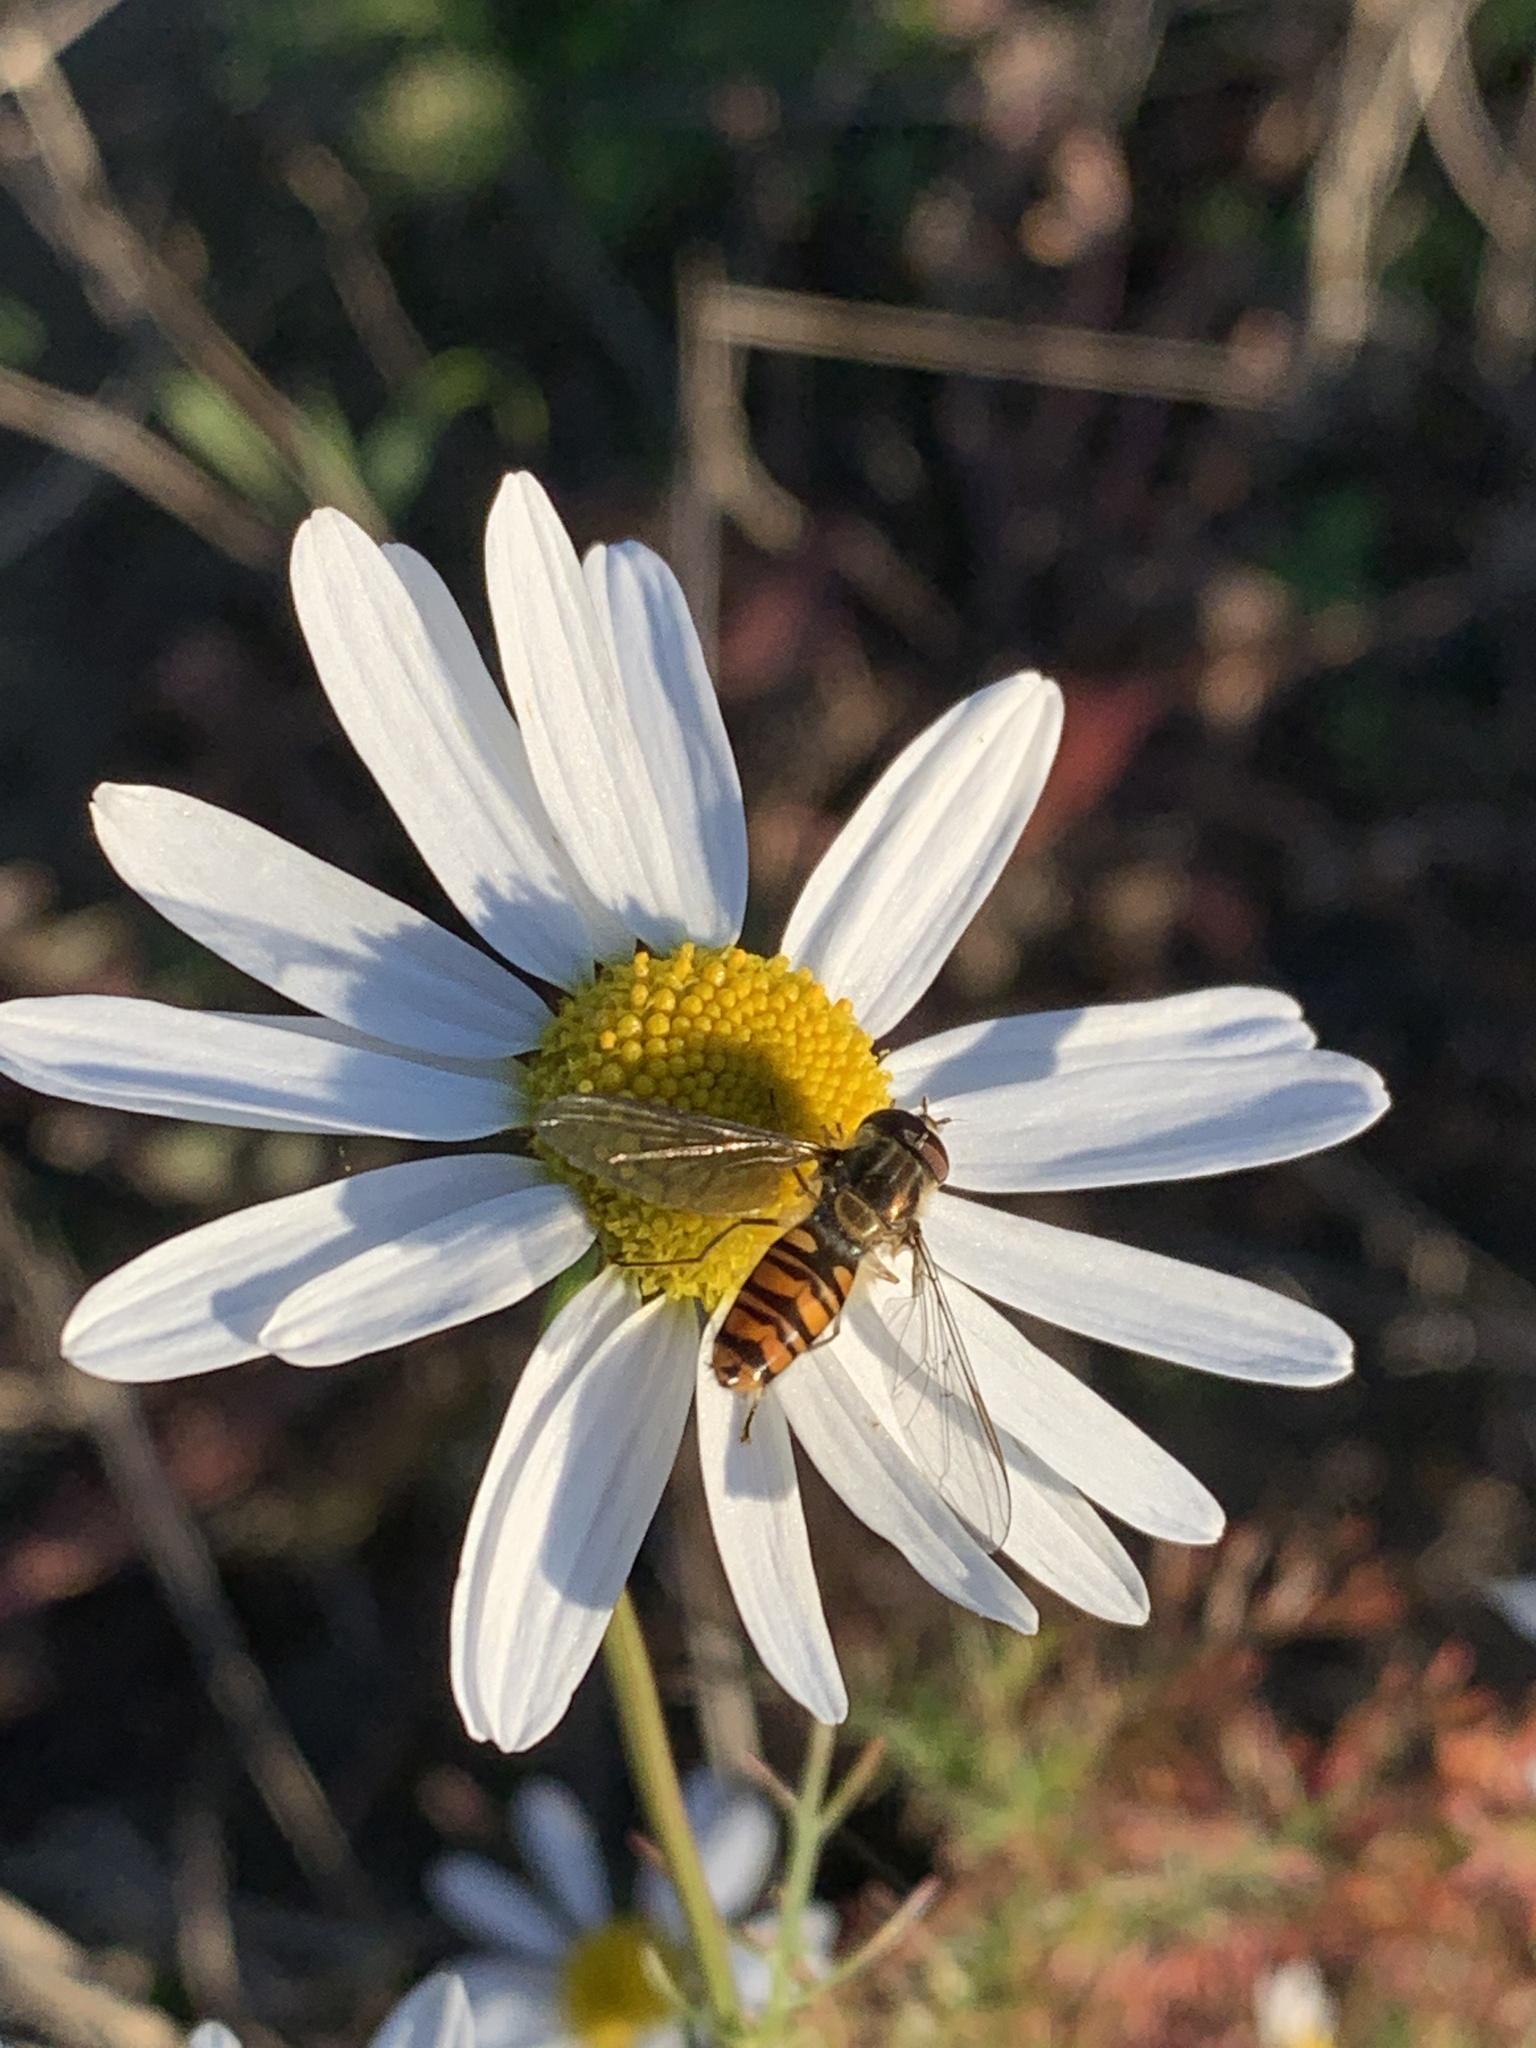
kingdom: Animalia
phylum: Arthropoda
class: Insecta
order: Diptera
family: Syrphidae
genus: Episyrphus
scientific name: Episyrphus balteatus
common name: Marmalade hoverfly
